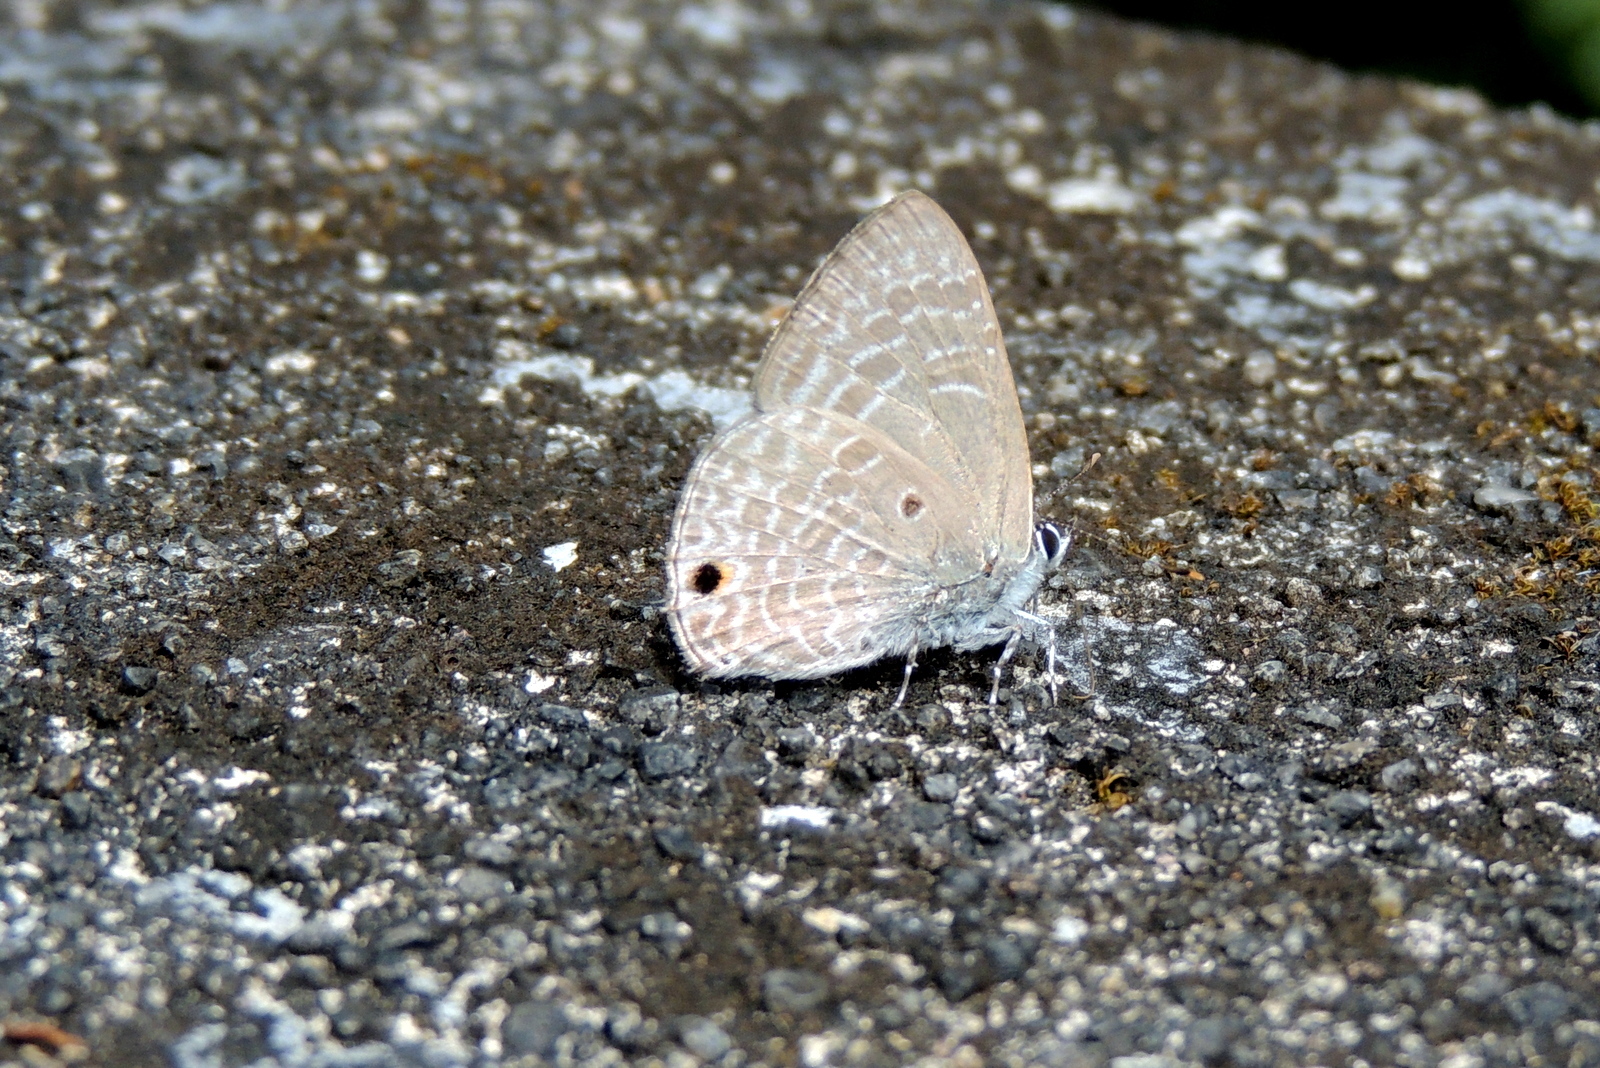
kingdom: Animalia
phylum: Arthropoda
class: Insecta
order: Lepidoptera
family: Lycaenidae
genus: Anthene
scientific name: Anthene lycaenina
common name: Pointed ciliate blue
